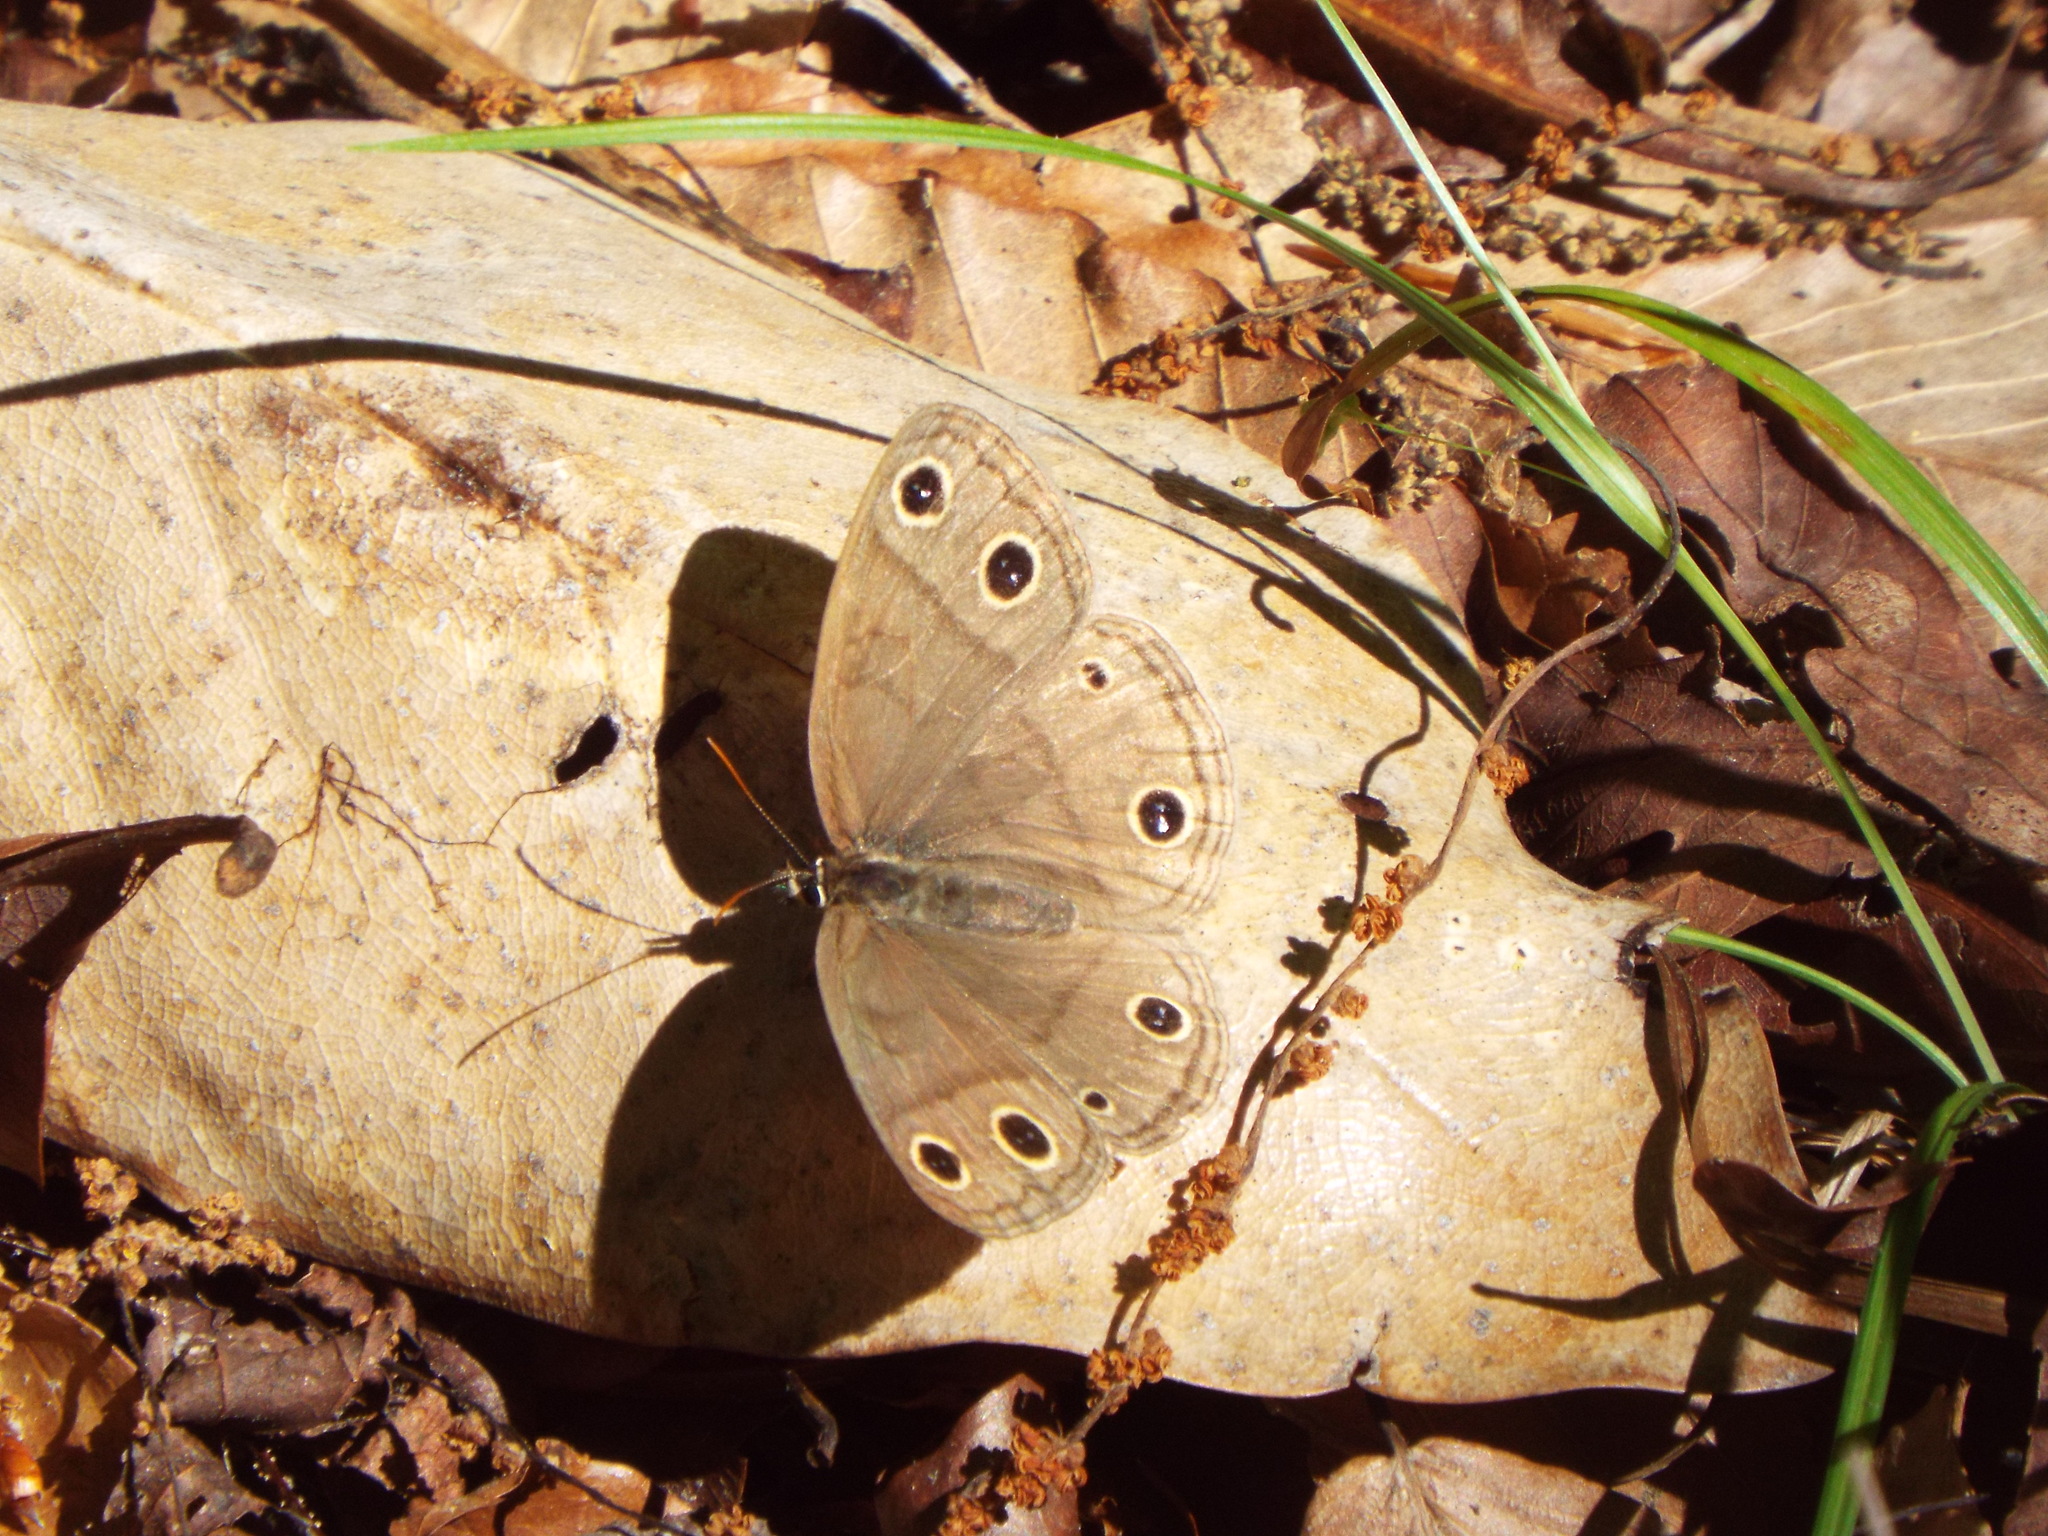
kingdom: Animalia
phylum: Arthropoda
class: Insecta
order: Lepidoptera
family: Nymphalidae
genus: Euptychia
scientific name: Euptychia cymela
